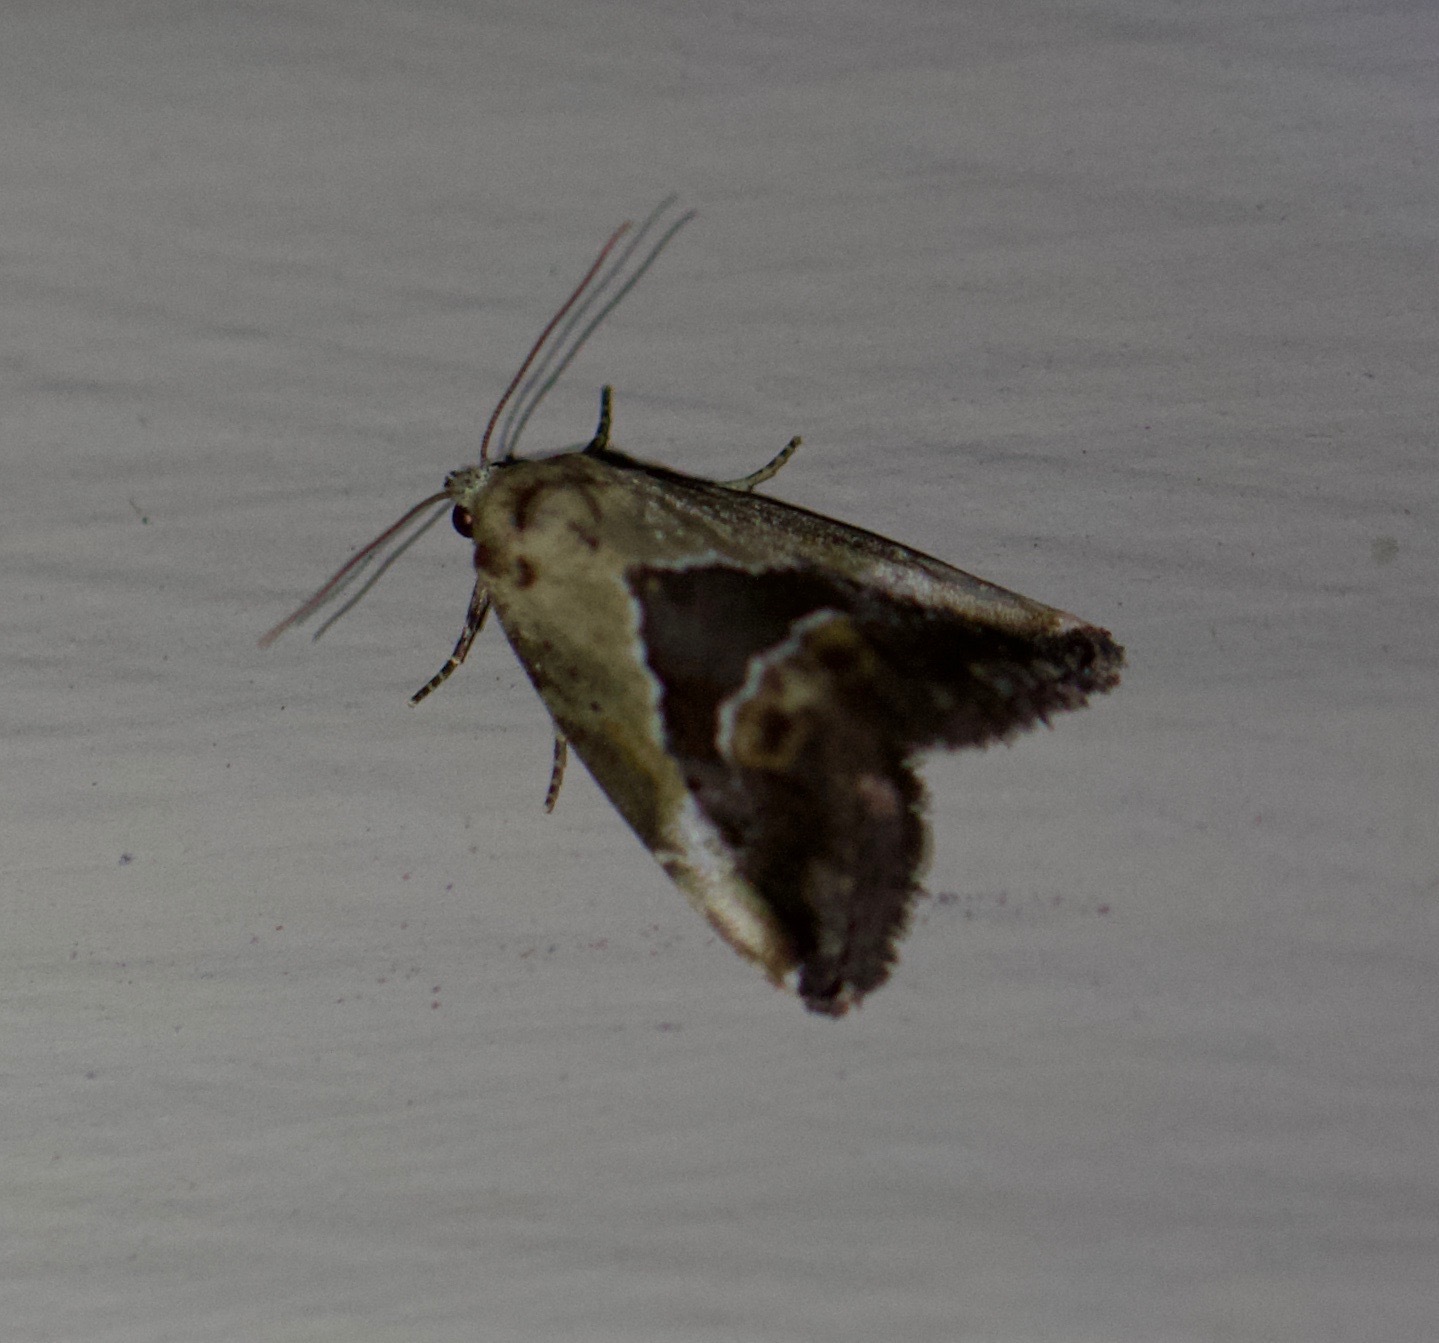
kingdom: Animalia
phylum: Arthropoda
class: Insecta
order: Lepidoptera
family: Noctuidae
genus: Lithacodia
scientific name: Lithacodia caffristis
